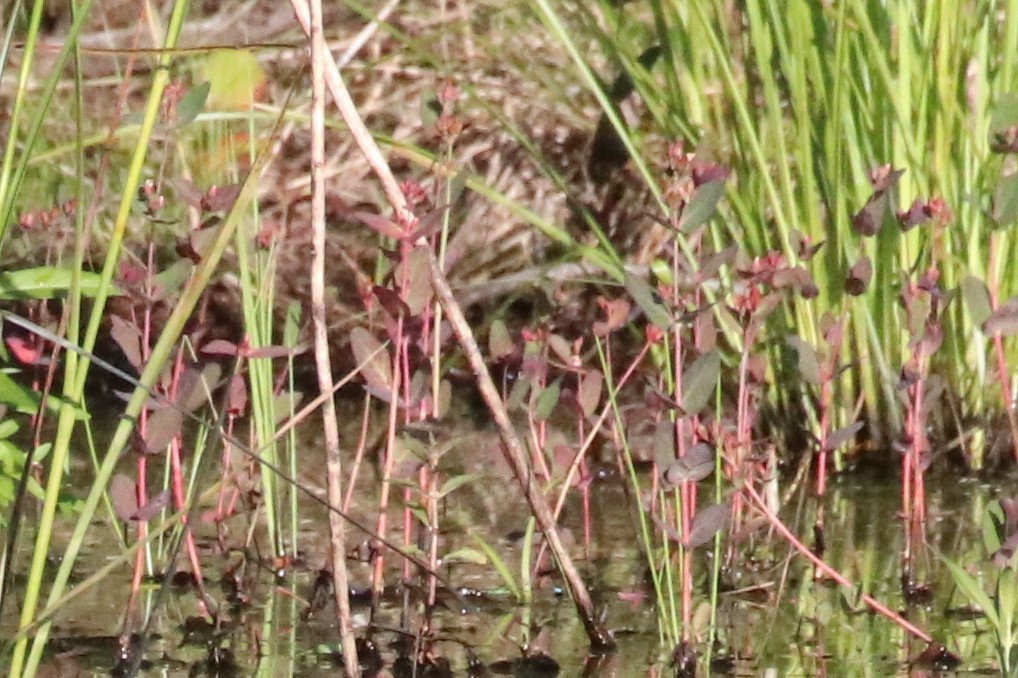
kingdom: Plantae
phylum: Tracheophyta
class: Magnoliopsida
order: Malpighiales
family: Hypericaceae
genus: Triadenum
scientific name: Triadenum fraseri
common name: Fraser's marsh st. johnswort
